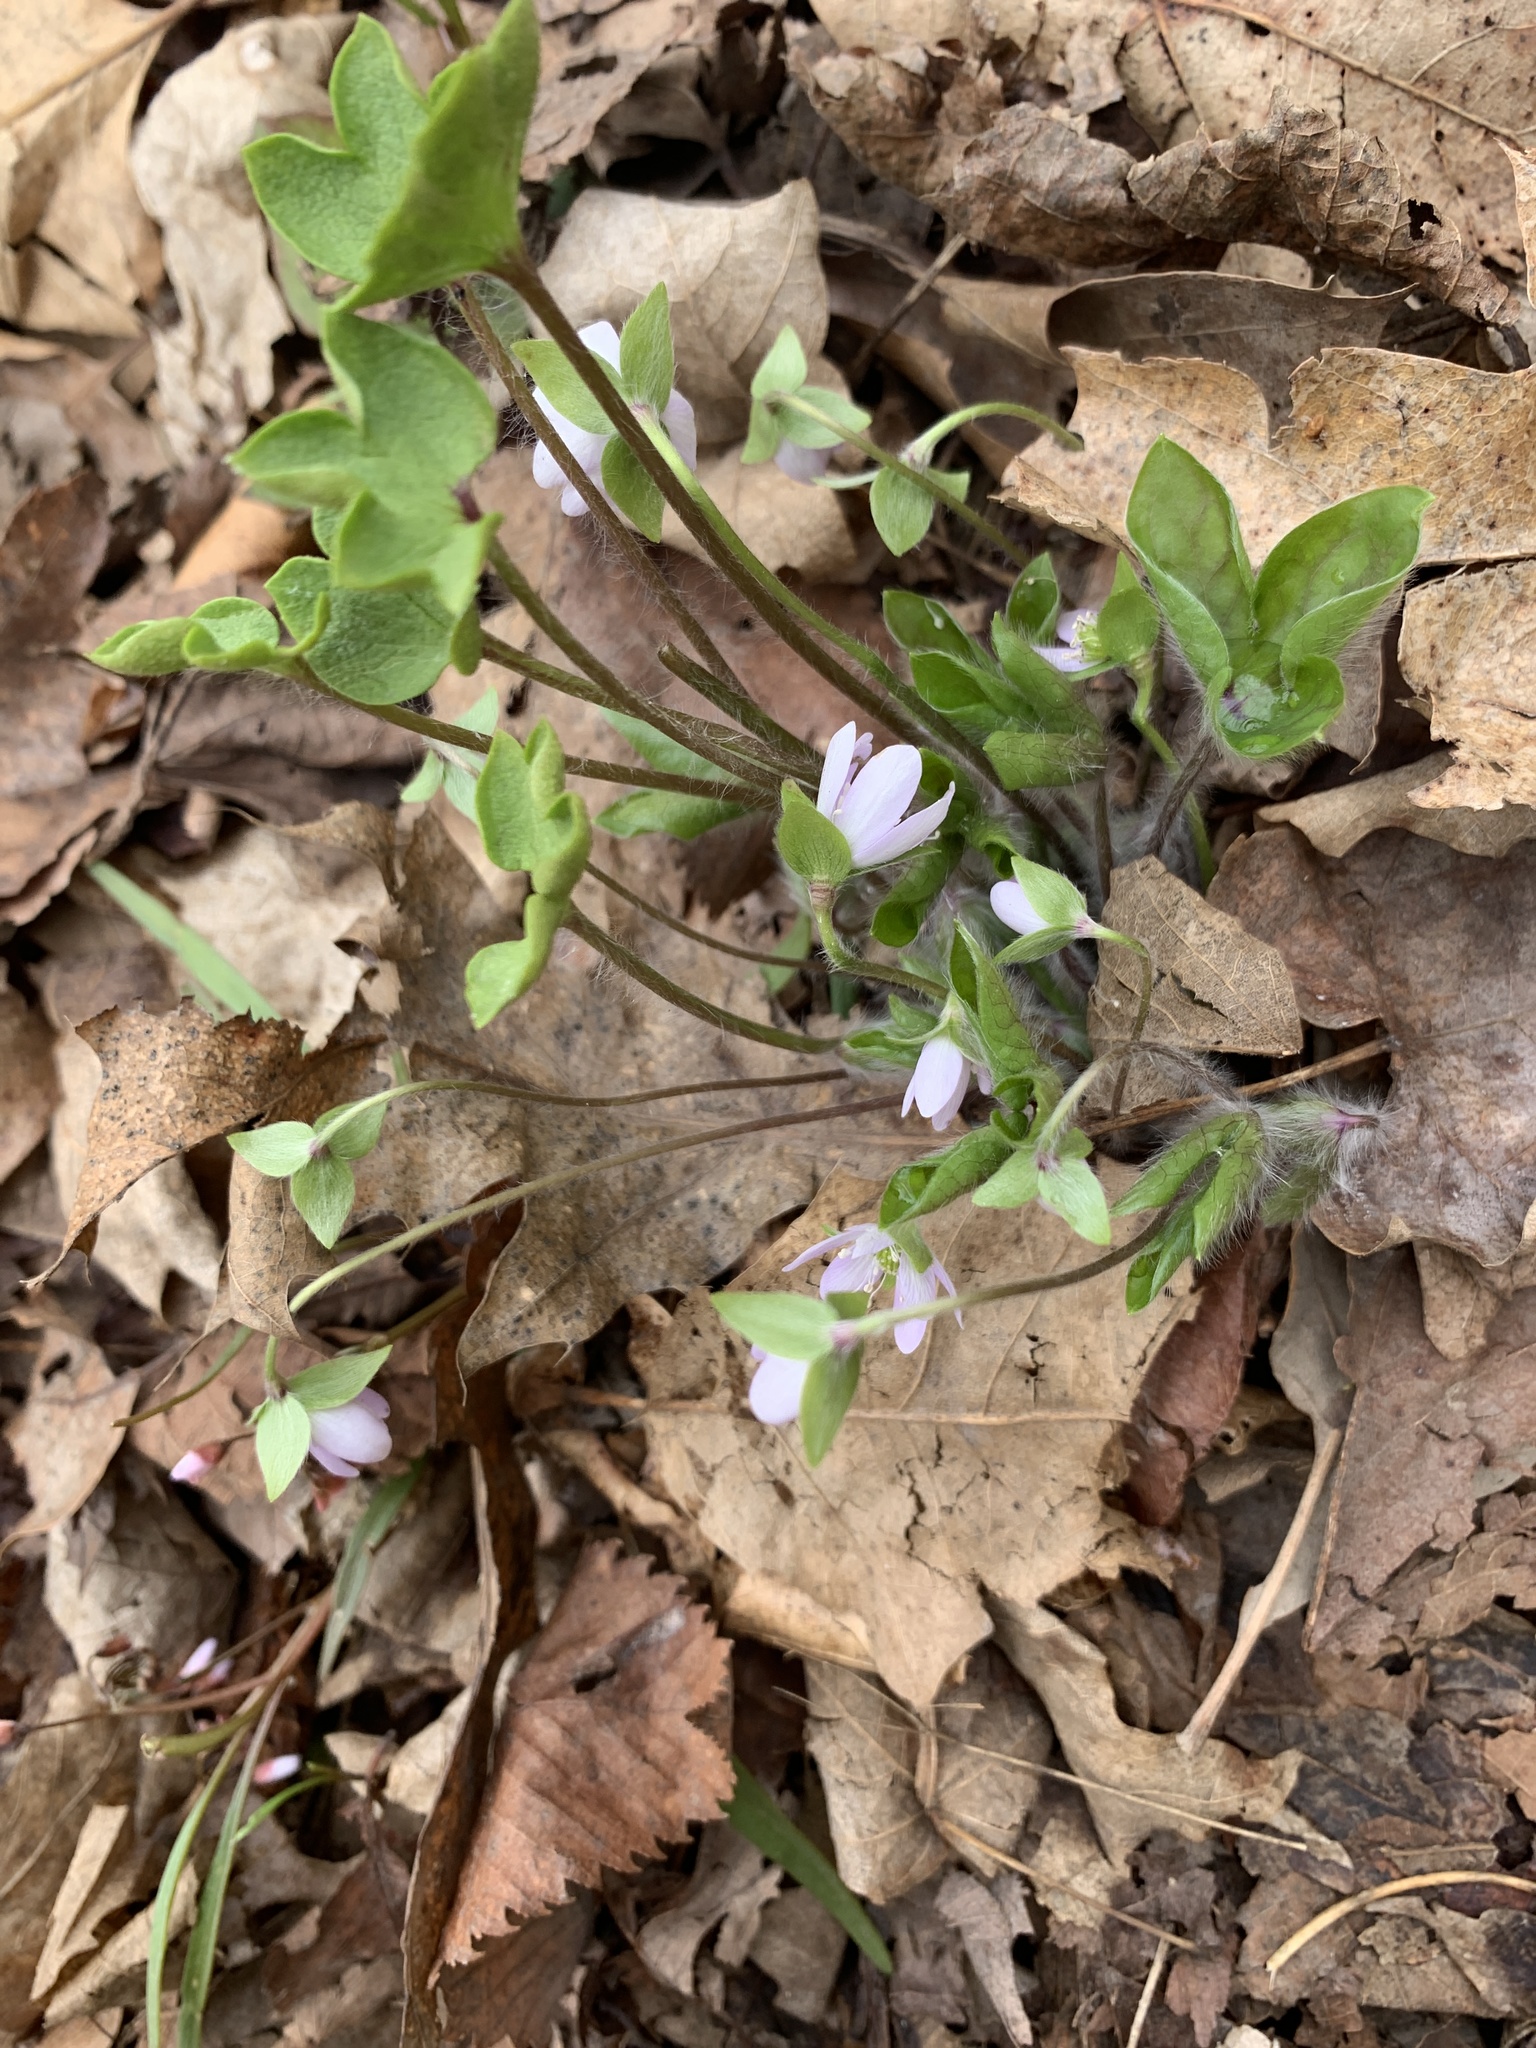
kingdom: Plantae
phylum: Tracheophyta
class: Magnoliopsida
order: Ranunculales
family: Ranunculaceae
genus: Hepatica
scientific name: Hepatica acutiloba
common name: Sharp-lobed hepatica
